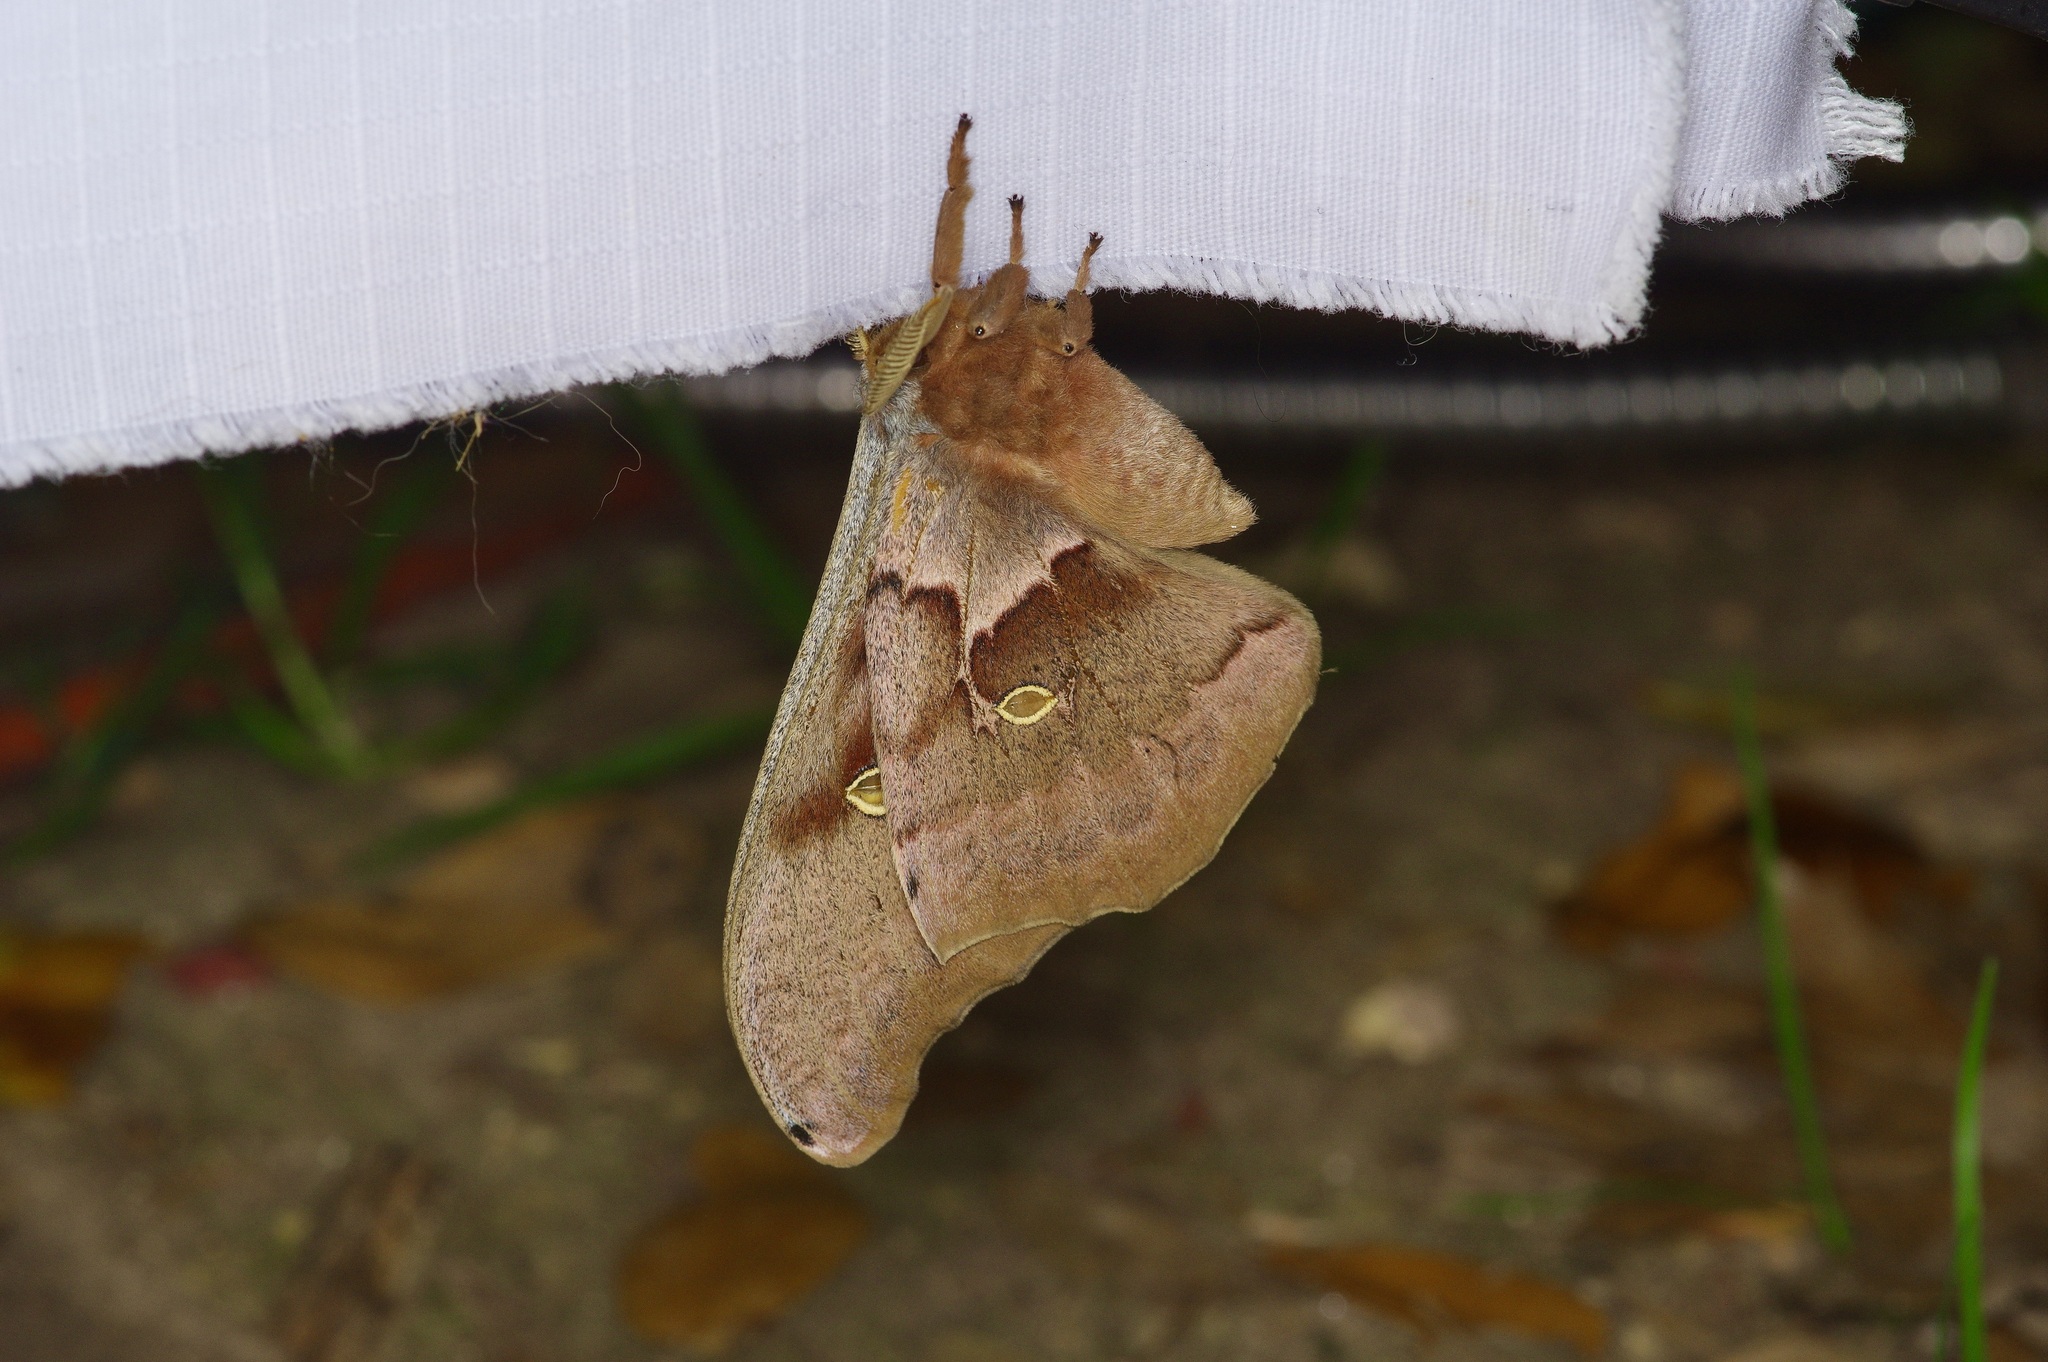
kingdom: Animalia
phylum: Arthropoda
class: Insecta
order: Lepidoptera
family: Saturniidae
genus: Antheraea
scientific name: Antheraea polyphemus
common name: Polyphemus moth
